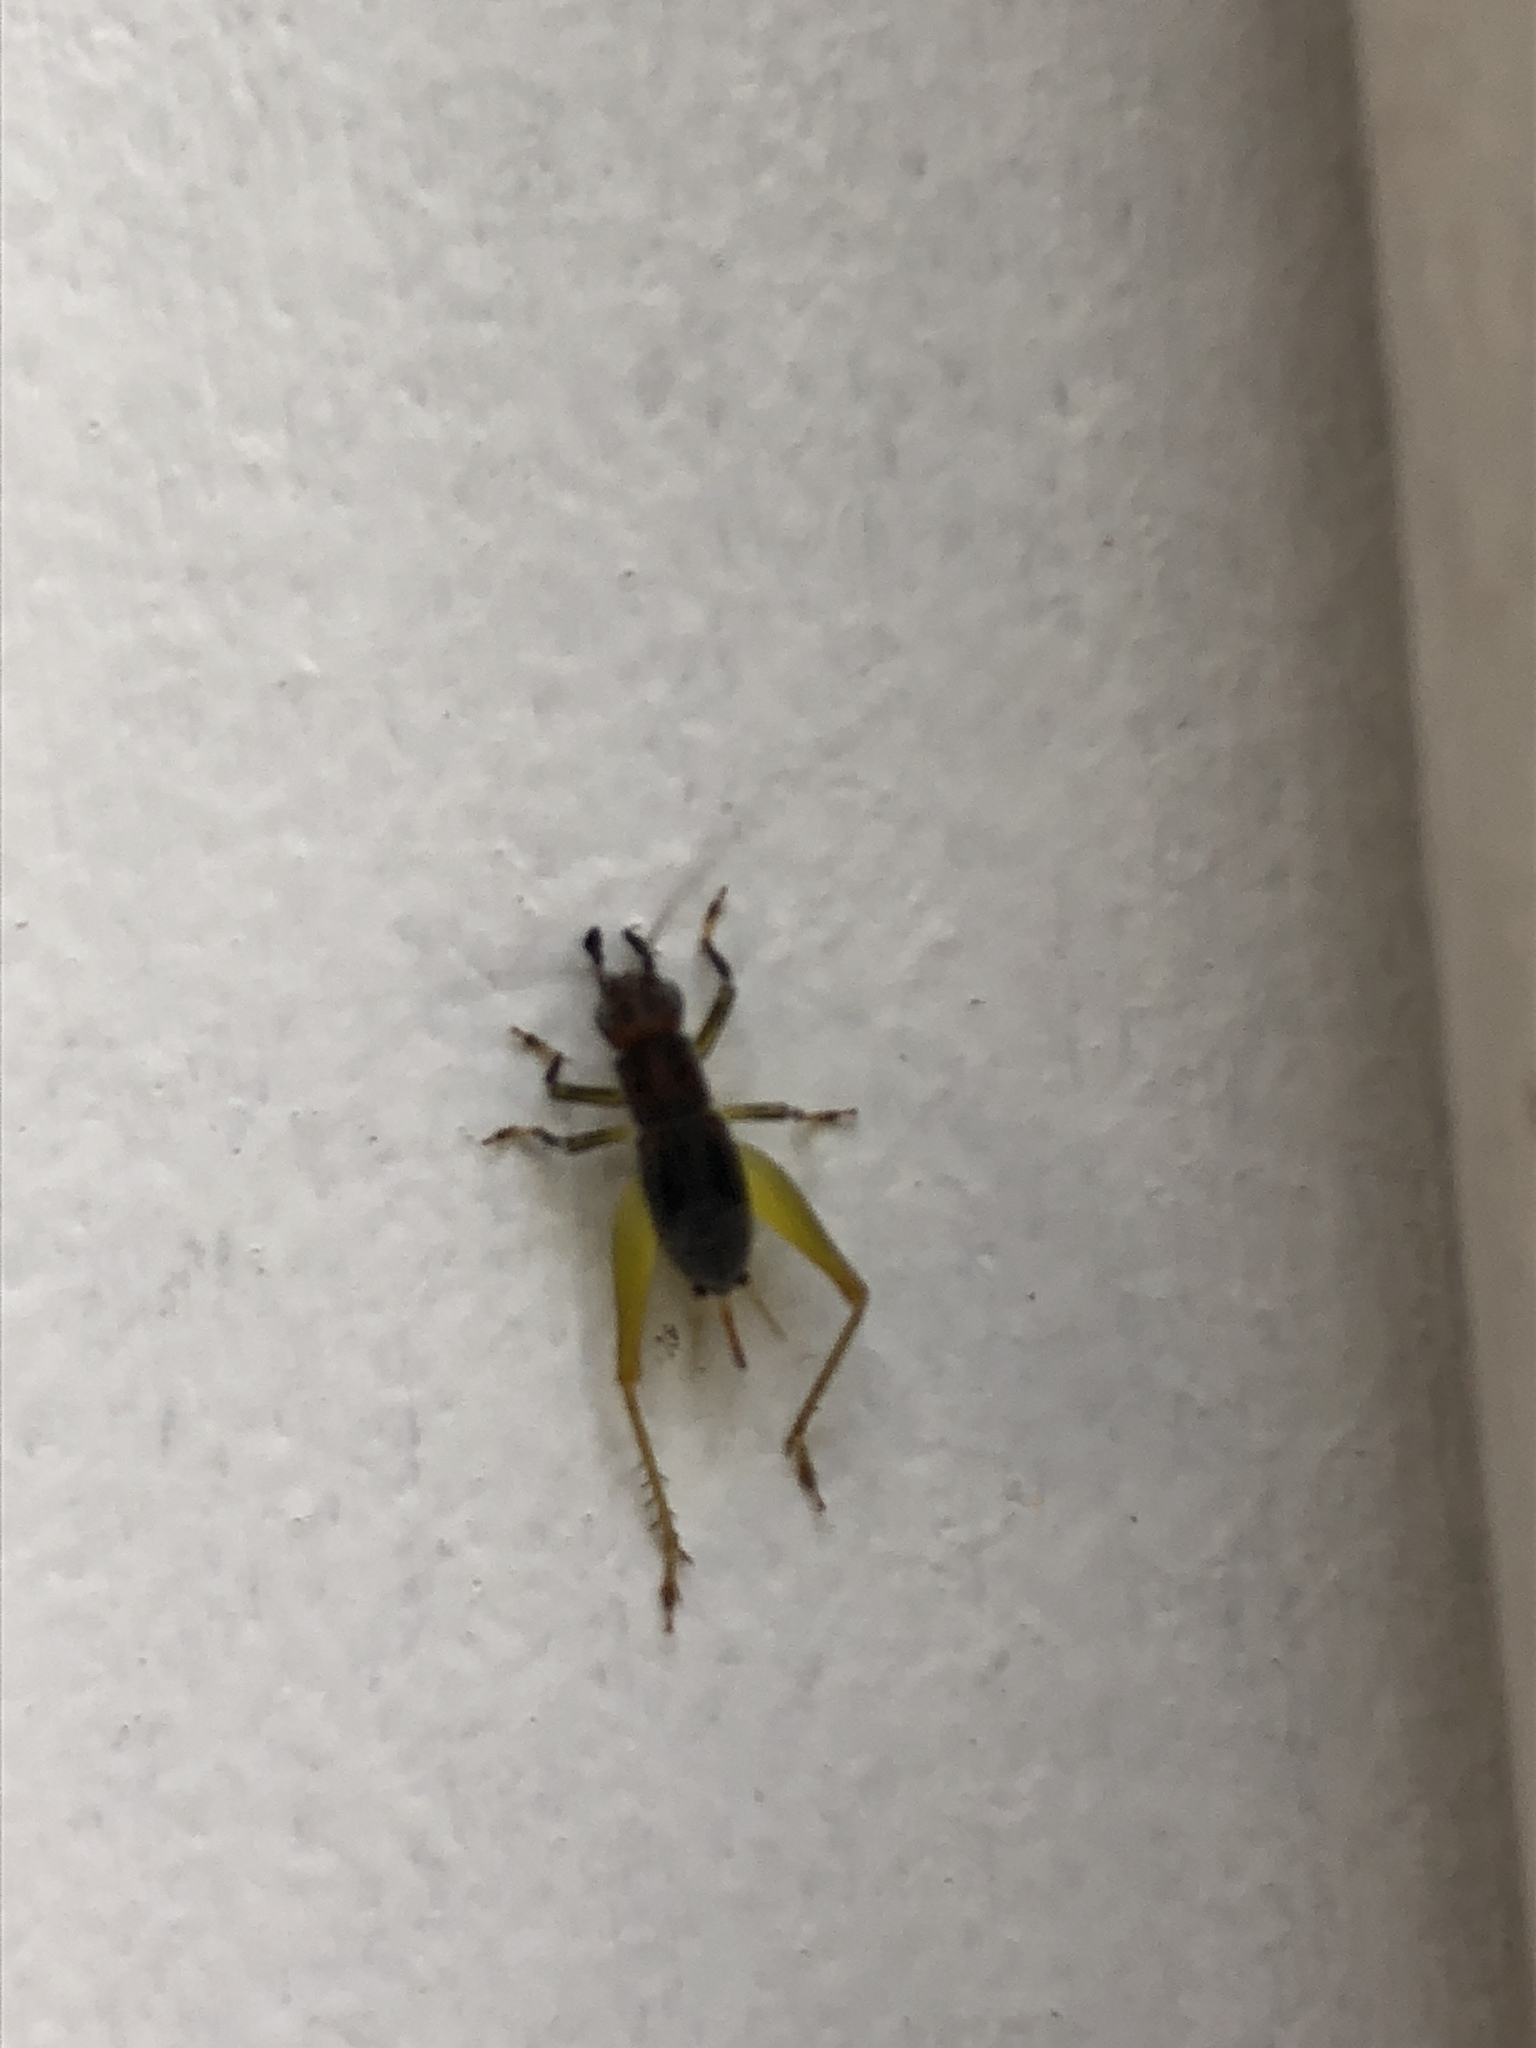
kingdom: Animalia
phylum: Arthropoda
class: Insecta
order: Orthoptera
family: Trigonidiidae
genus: Phyllopalpus
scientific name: Phyllopalpus pulchellus
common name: Handsome trig
